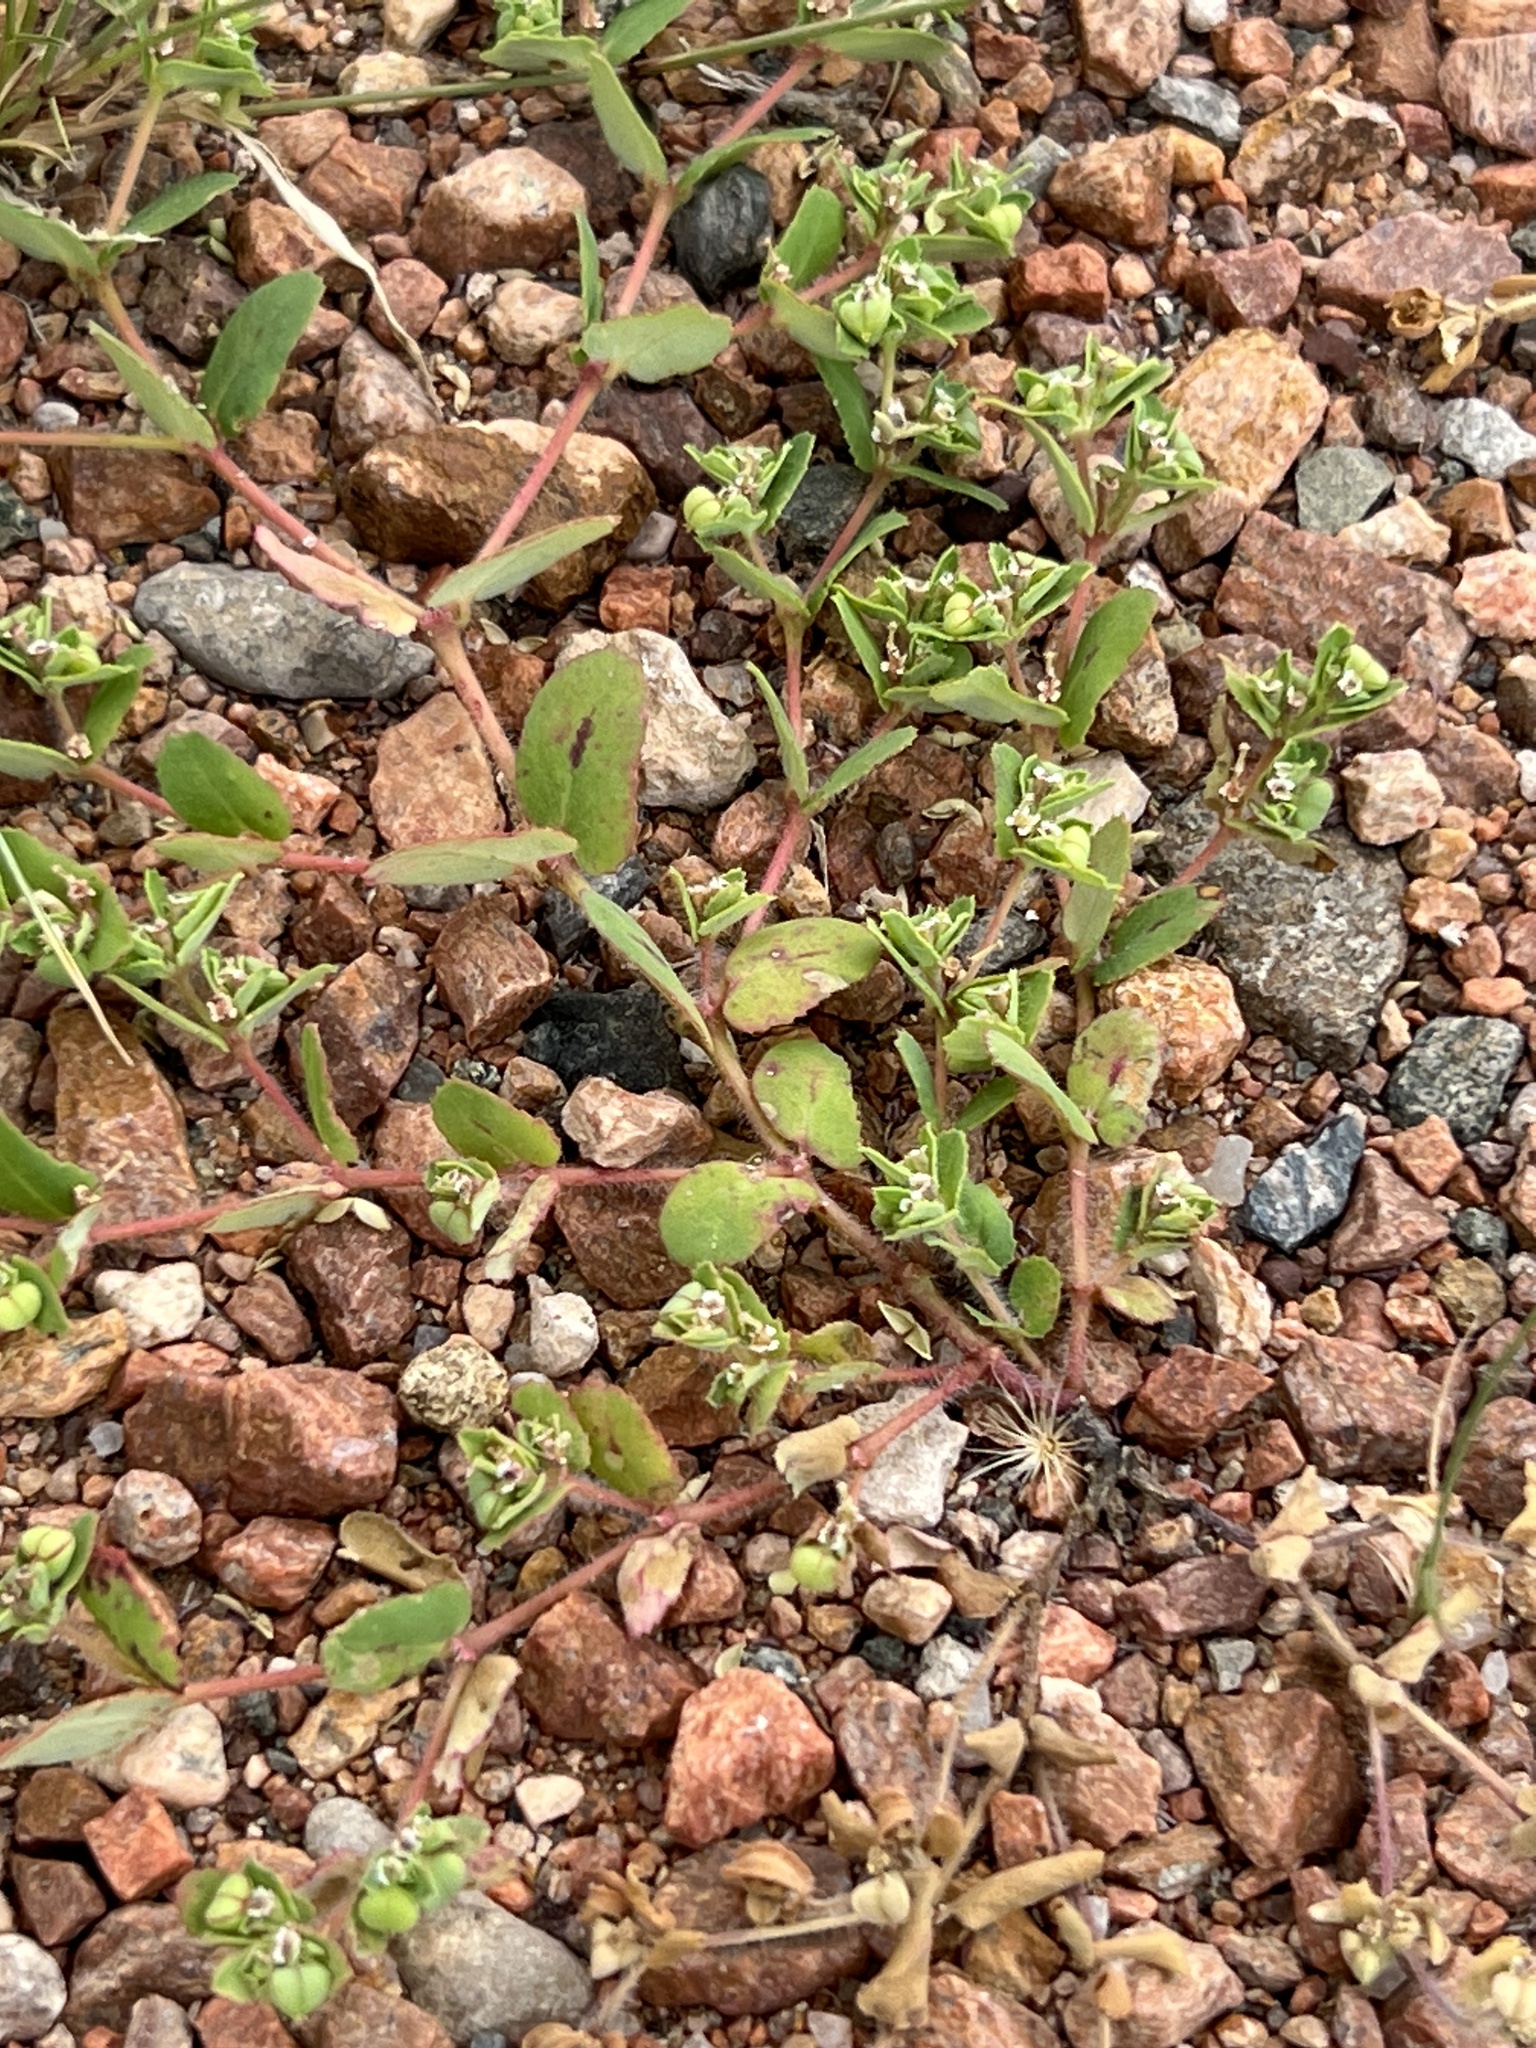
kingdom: Plantae
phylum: Tracheophyta
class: Magnoliopsida
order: Malpighiales
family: Euphorbiaceae
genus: Euphorbia
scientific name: Euphorbia serrula
